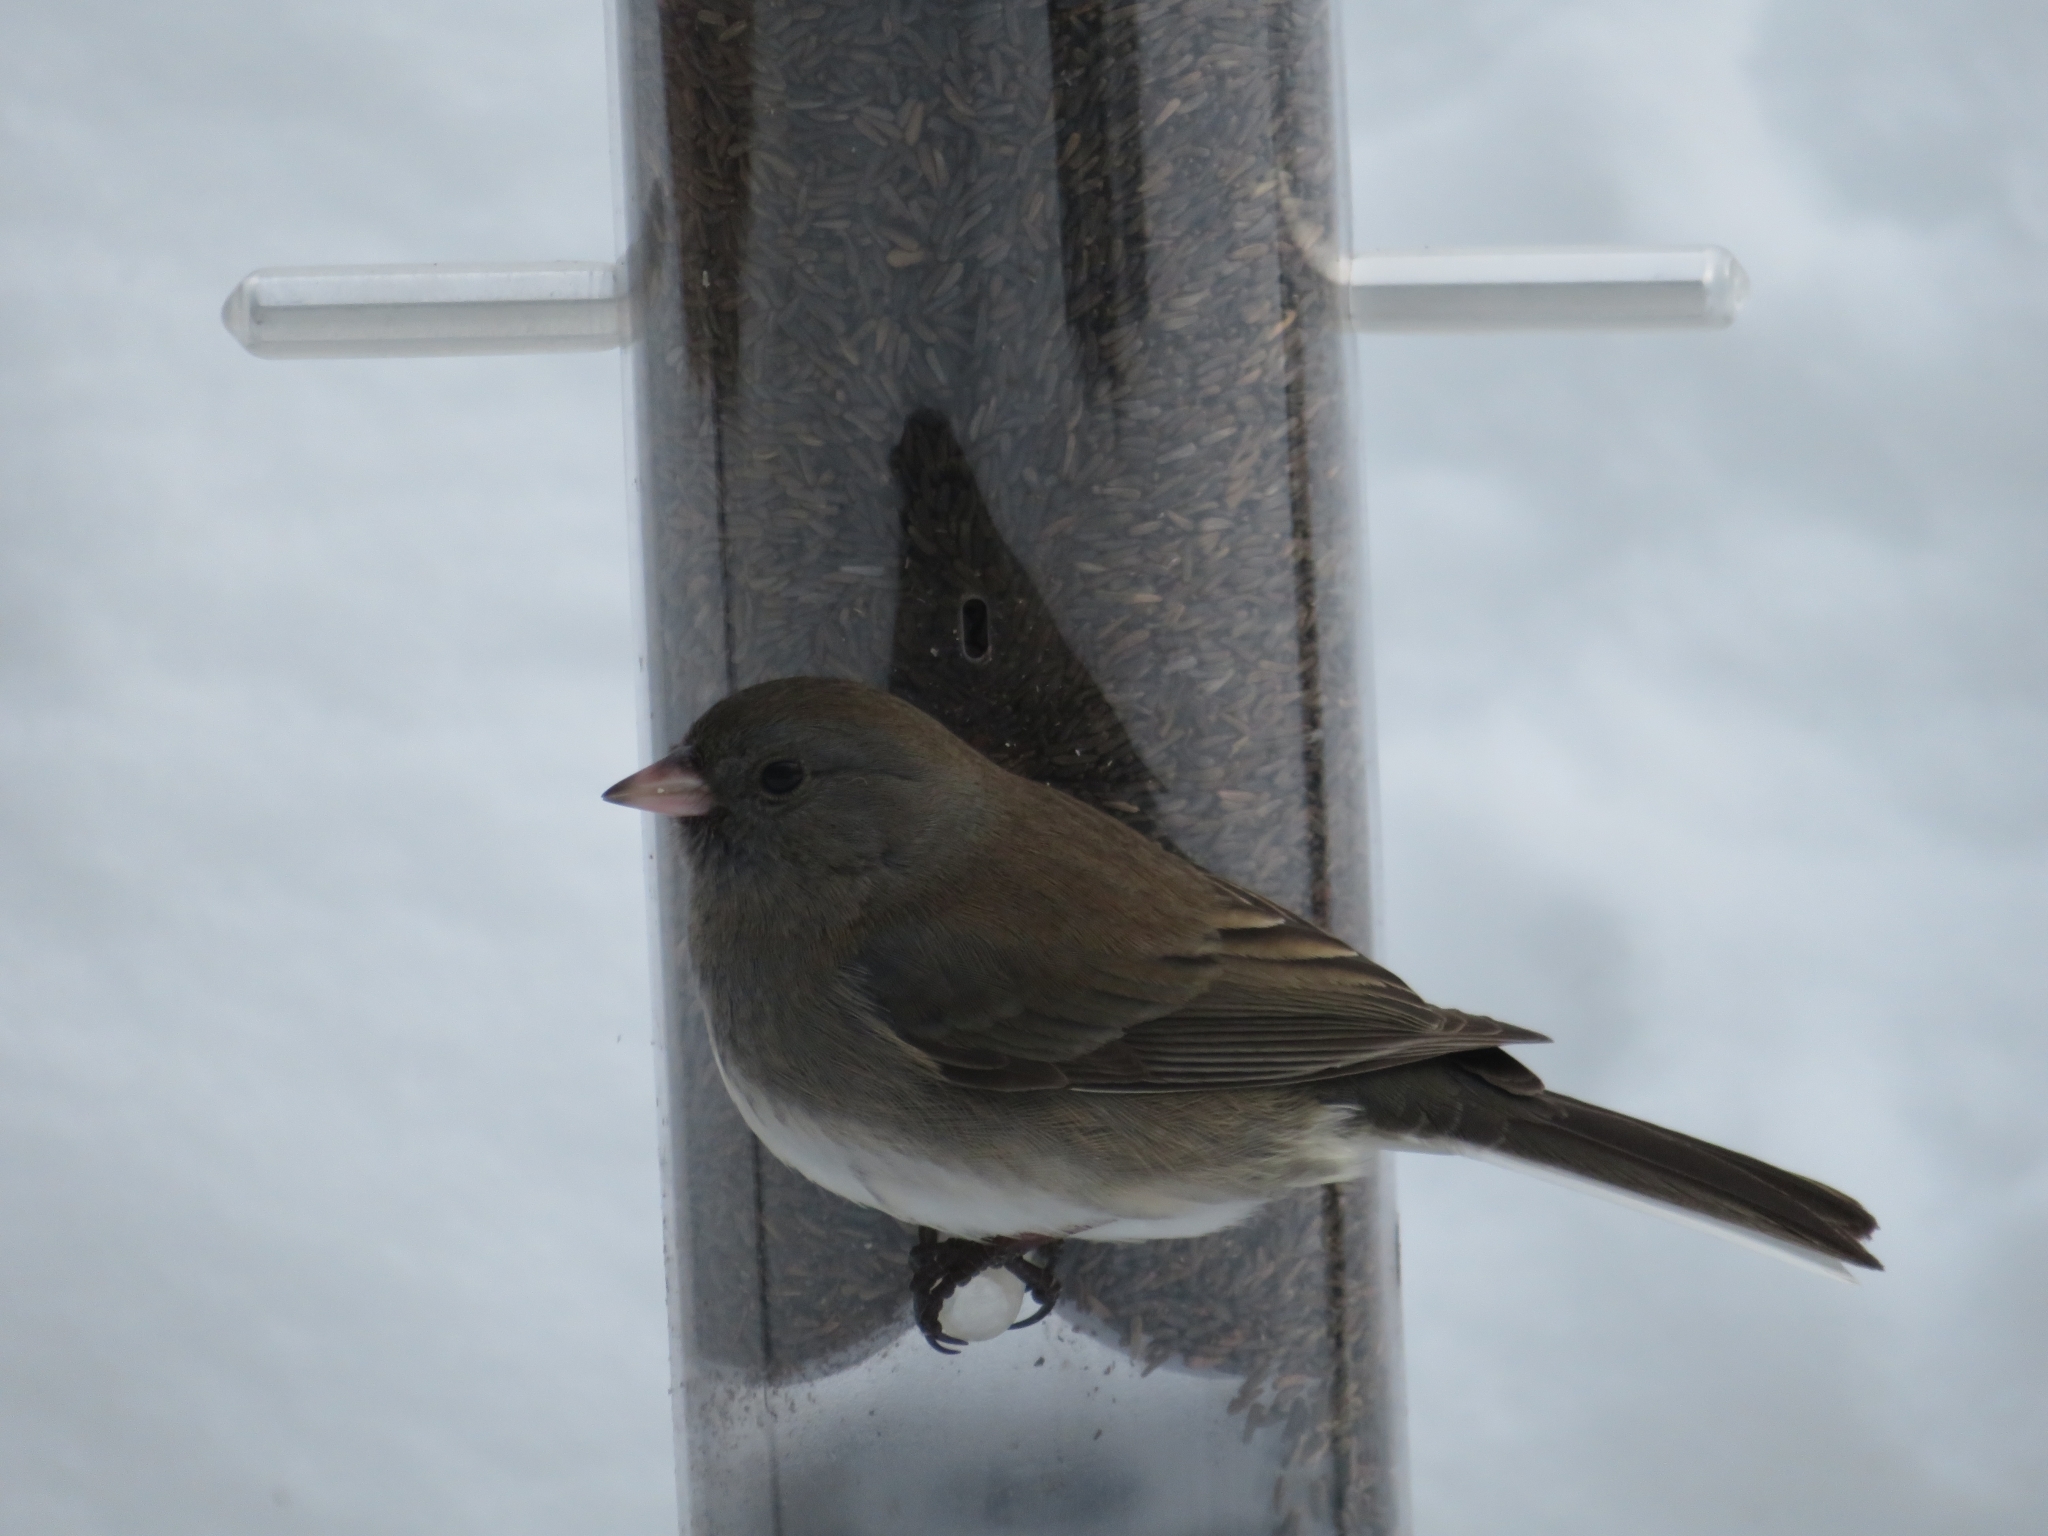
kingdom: Animalia
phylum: Chordata
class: Aves
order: Passeriformes
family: Passerellidae
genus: Junco
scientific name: Junco hyemalis
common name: Dark-eyed junco
